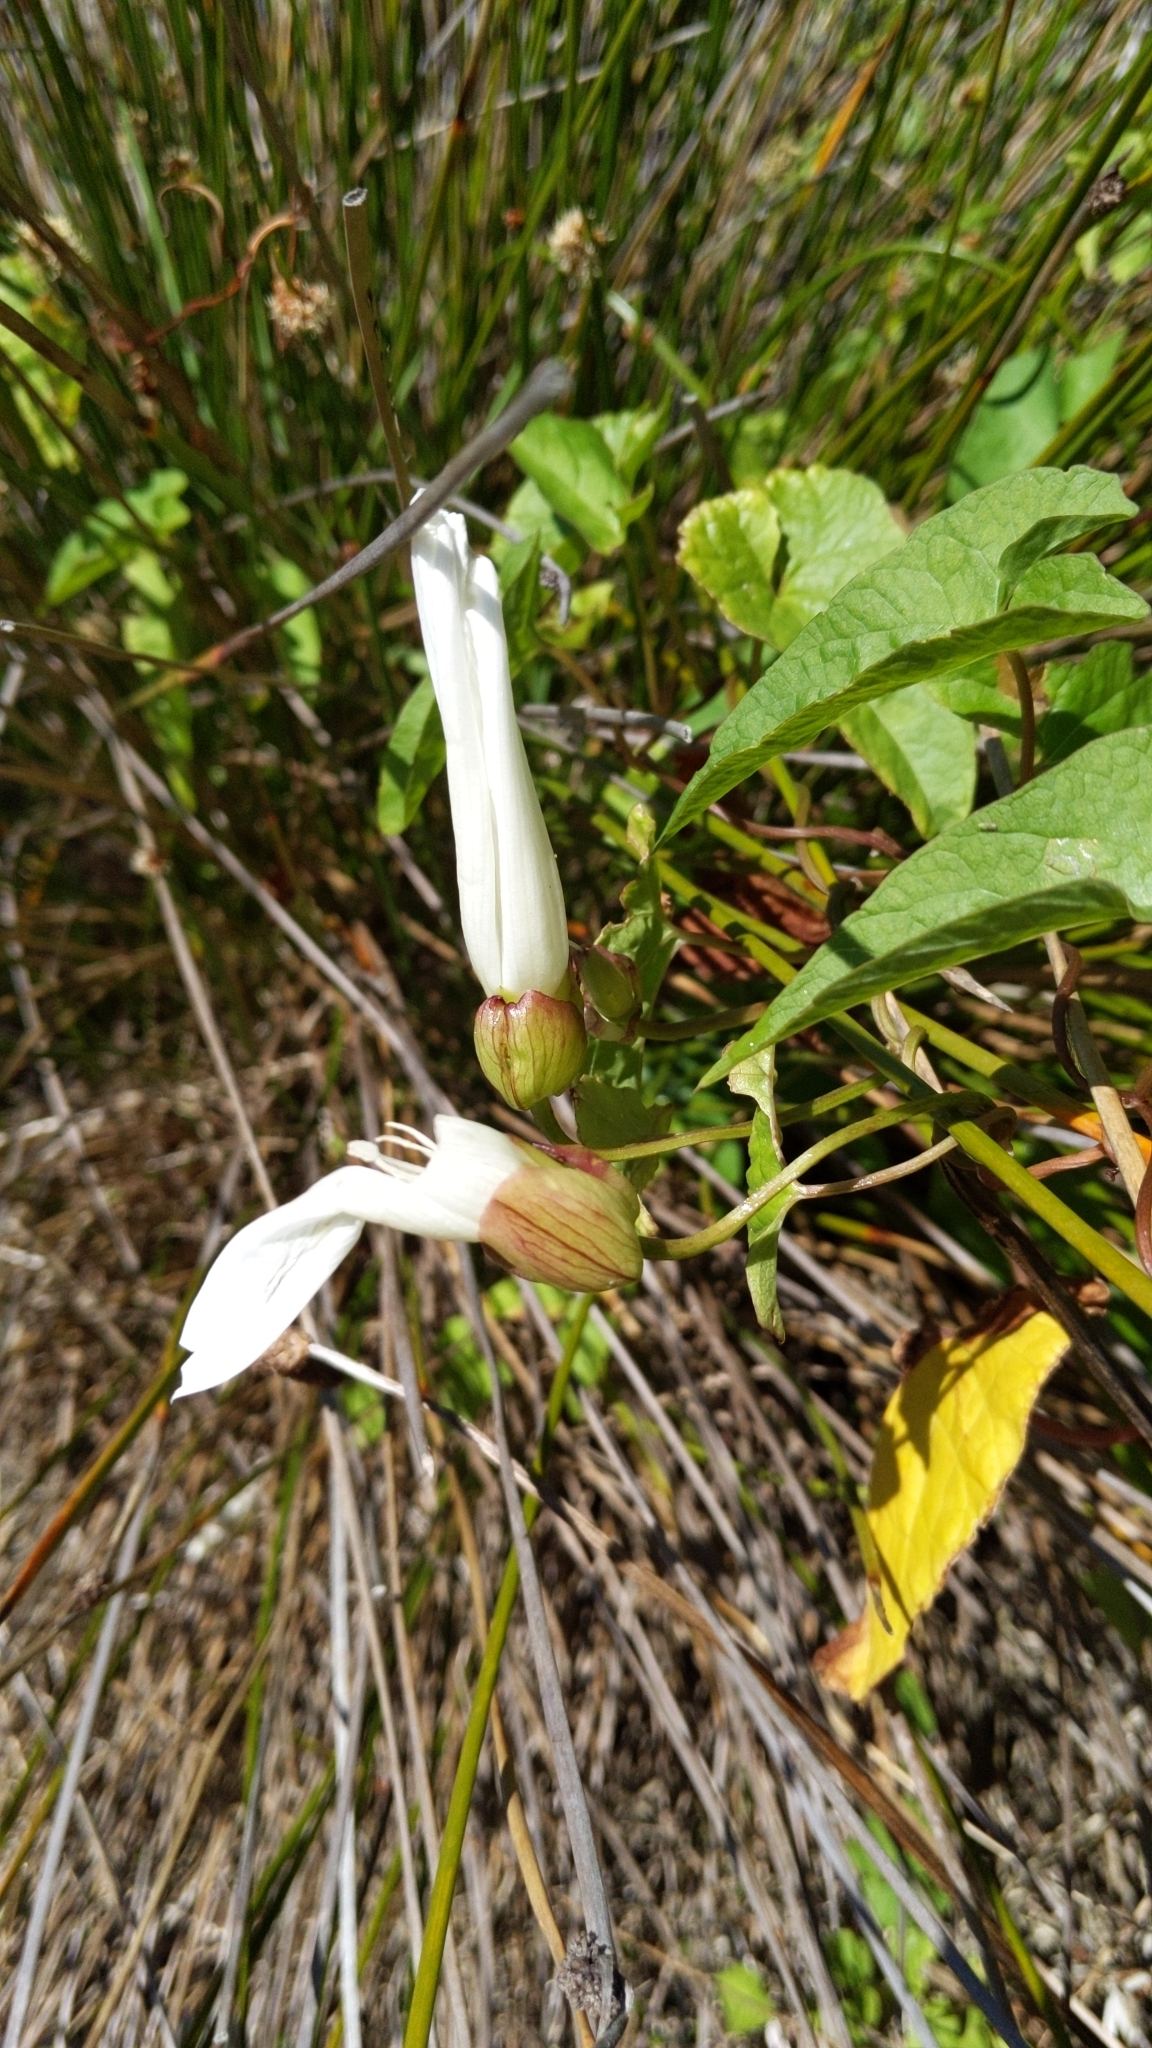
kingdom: Plantae
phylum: Tracheophyta
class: Magnoliopsida
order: Solanales
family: Convolvulaceae
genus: Calystegia
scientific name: Calystegia silvatica
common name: Large bindweed
